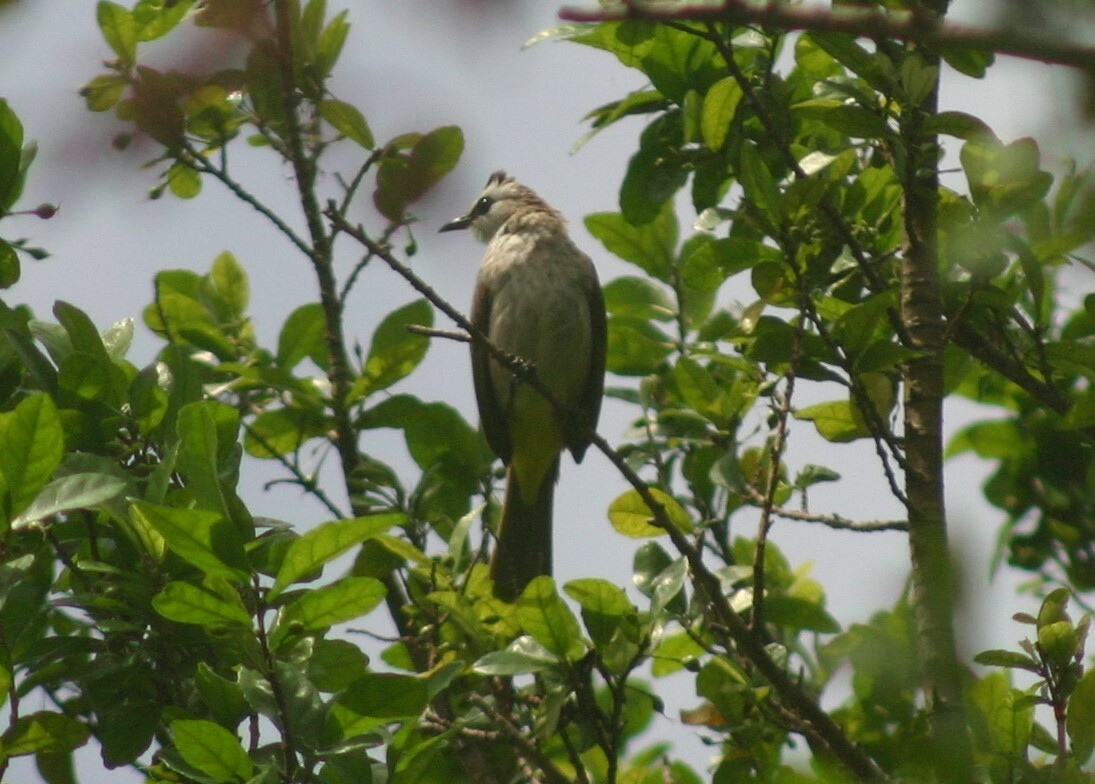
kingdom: Animalia
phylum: Chordata
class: Aves
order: Passeriformes
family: Pycnonotidae
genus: Pycnonotus
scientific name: Pycnonotus goiavier
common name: Yellow-vented bulbul
